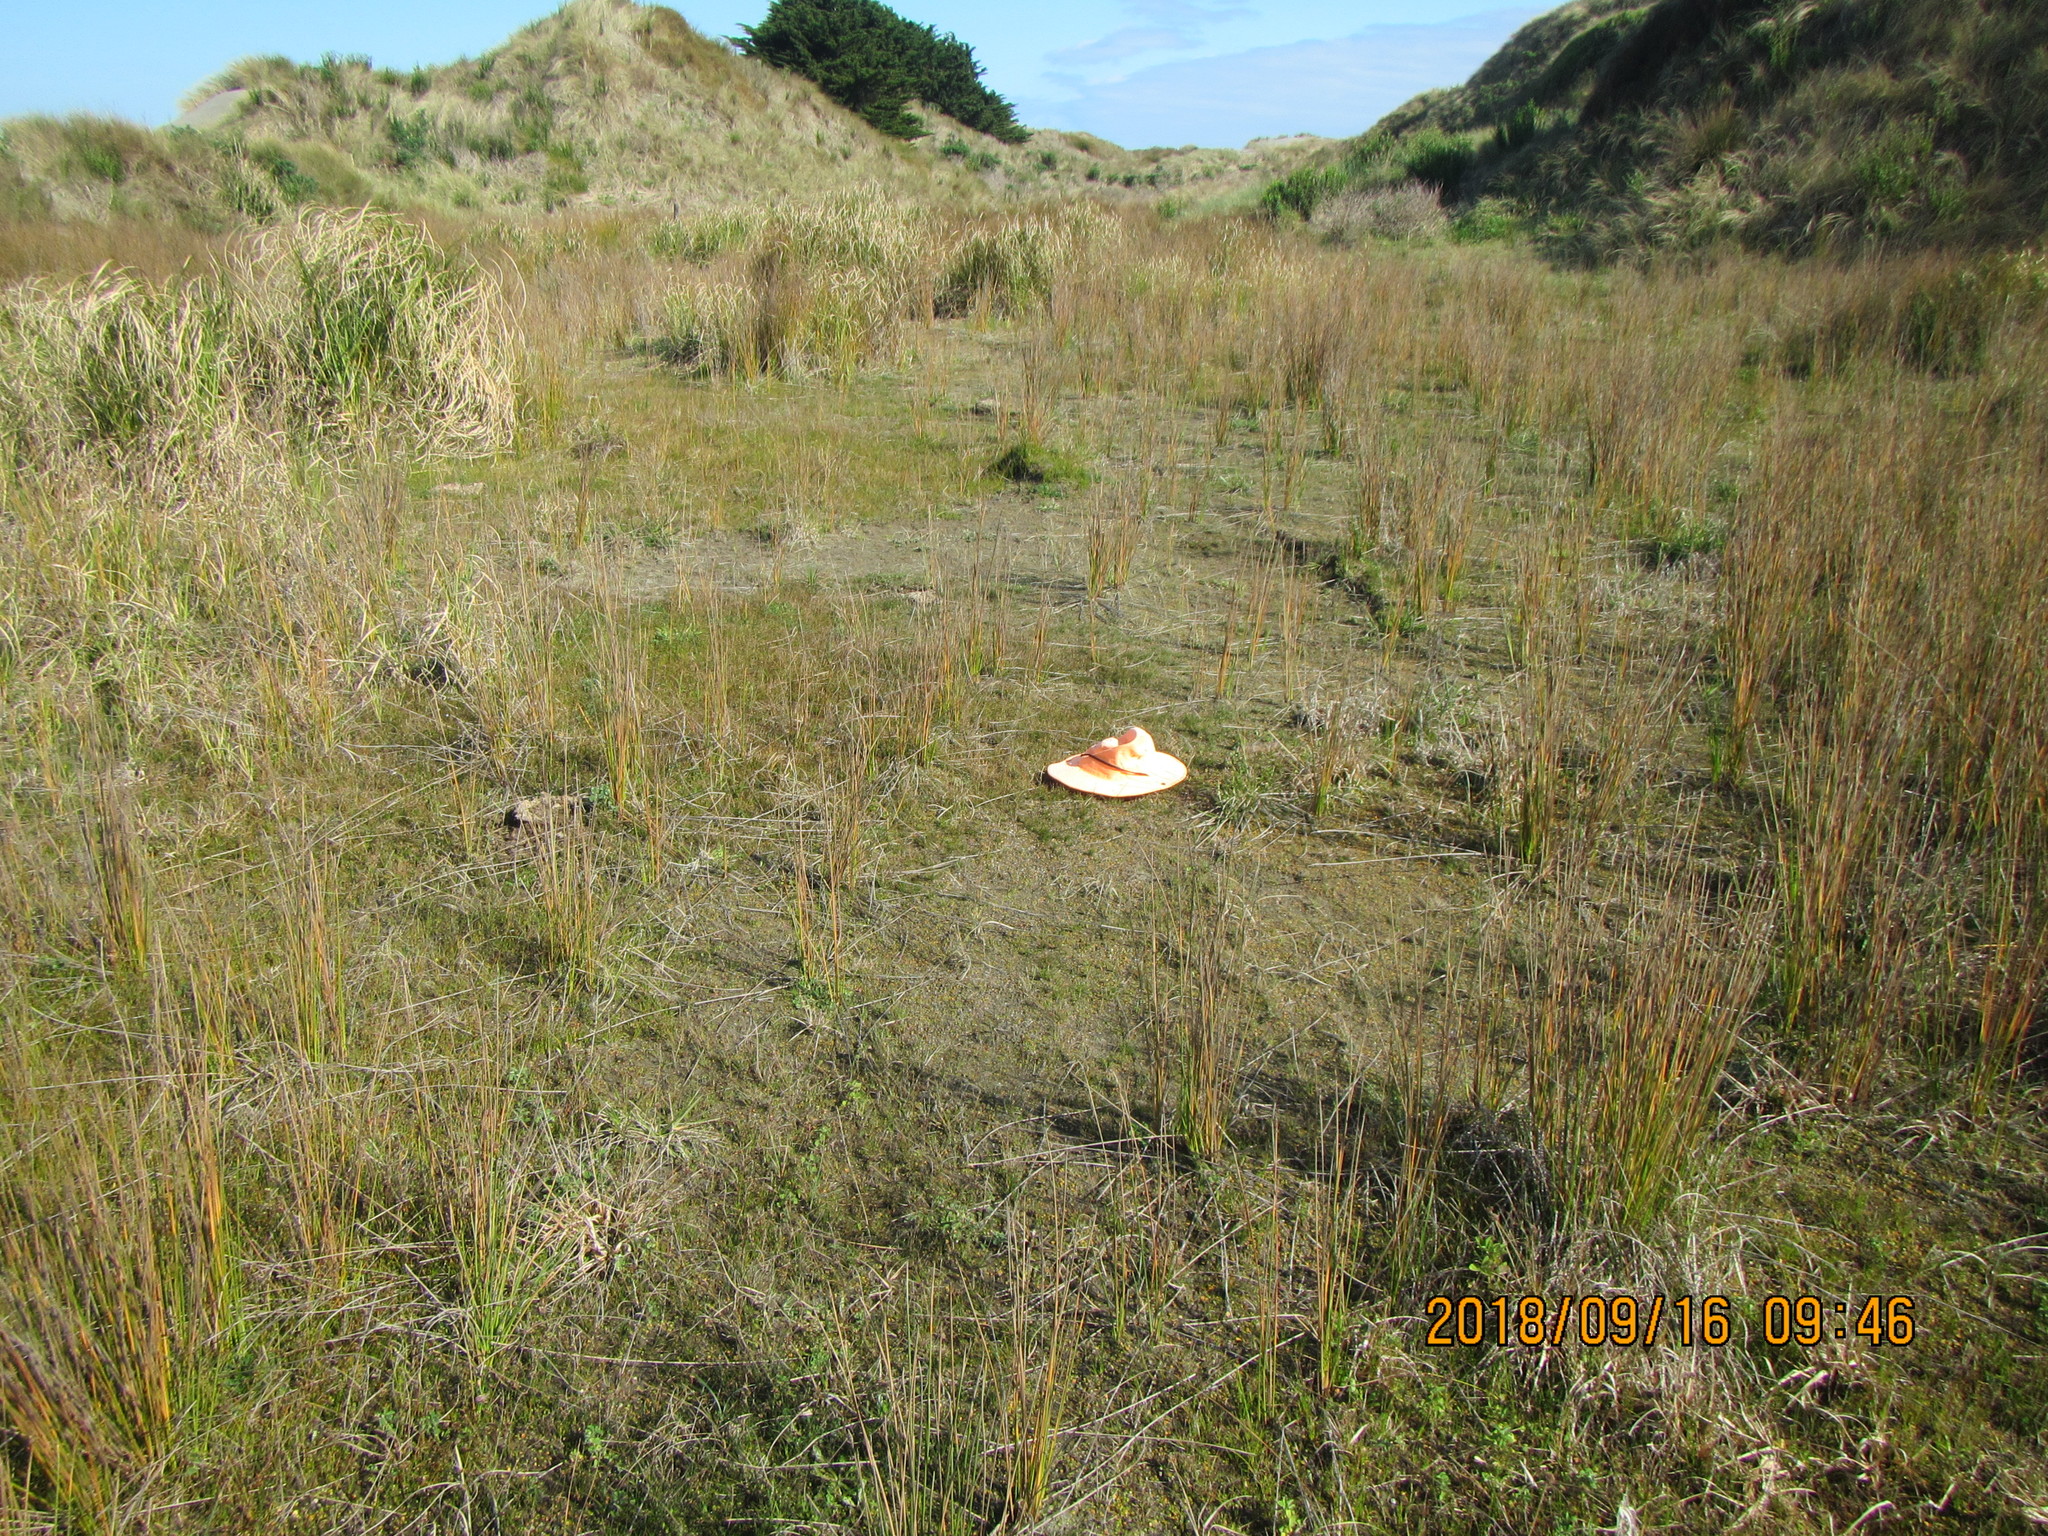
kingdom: Plantae
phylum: Tracheophyta
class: Liliopsida
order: Poales
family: Juncaceae
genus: Juncus
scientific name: Juncus caespiticius
